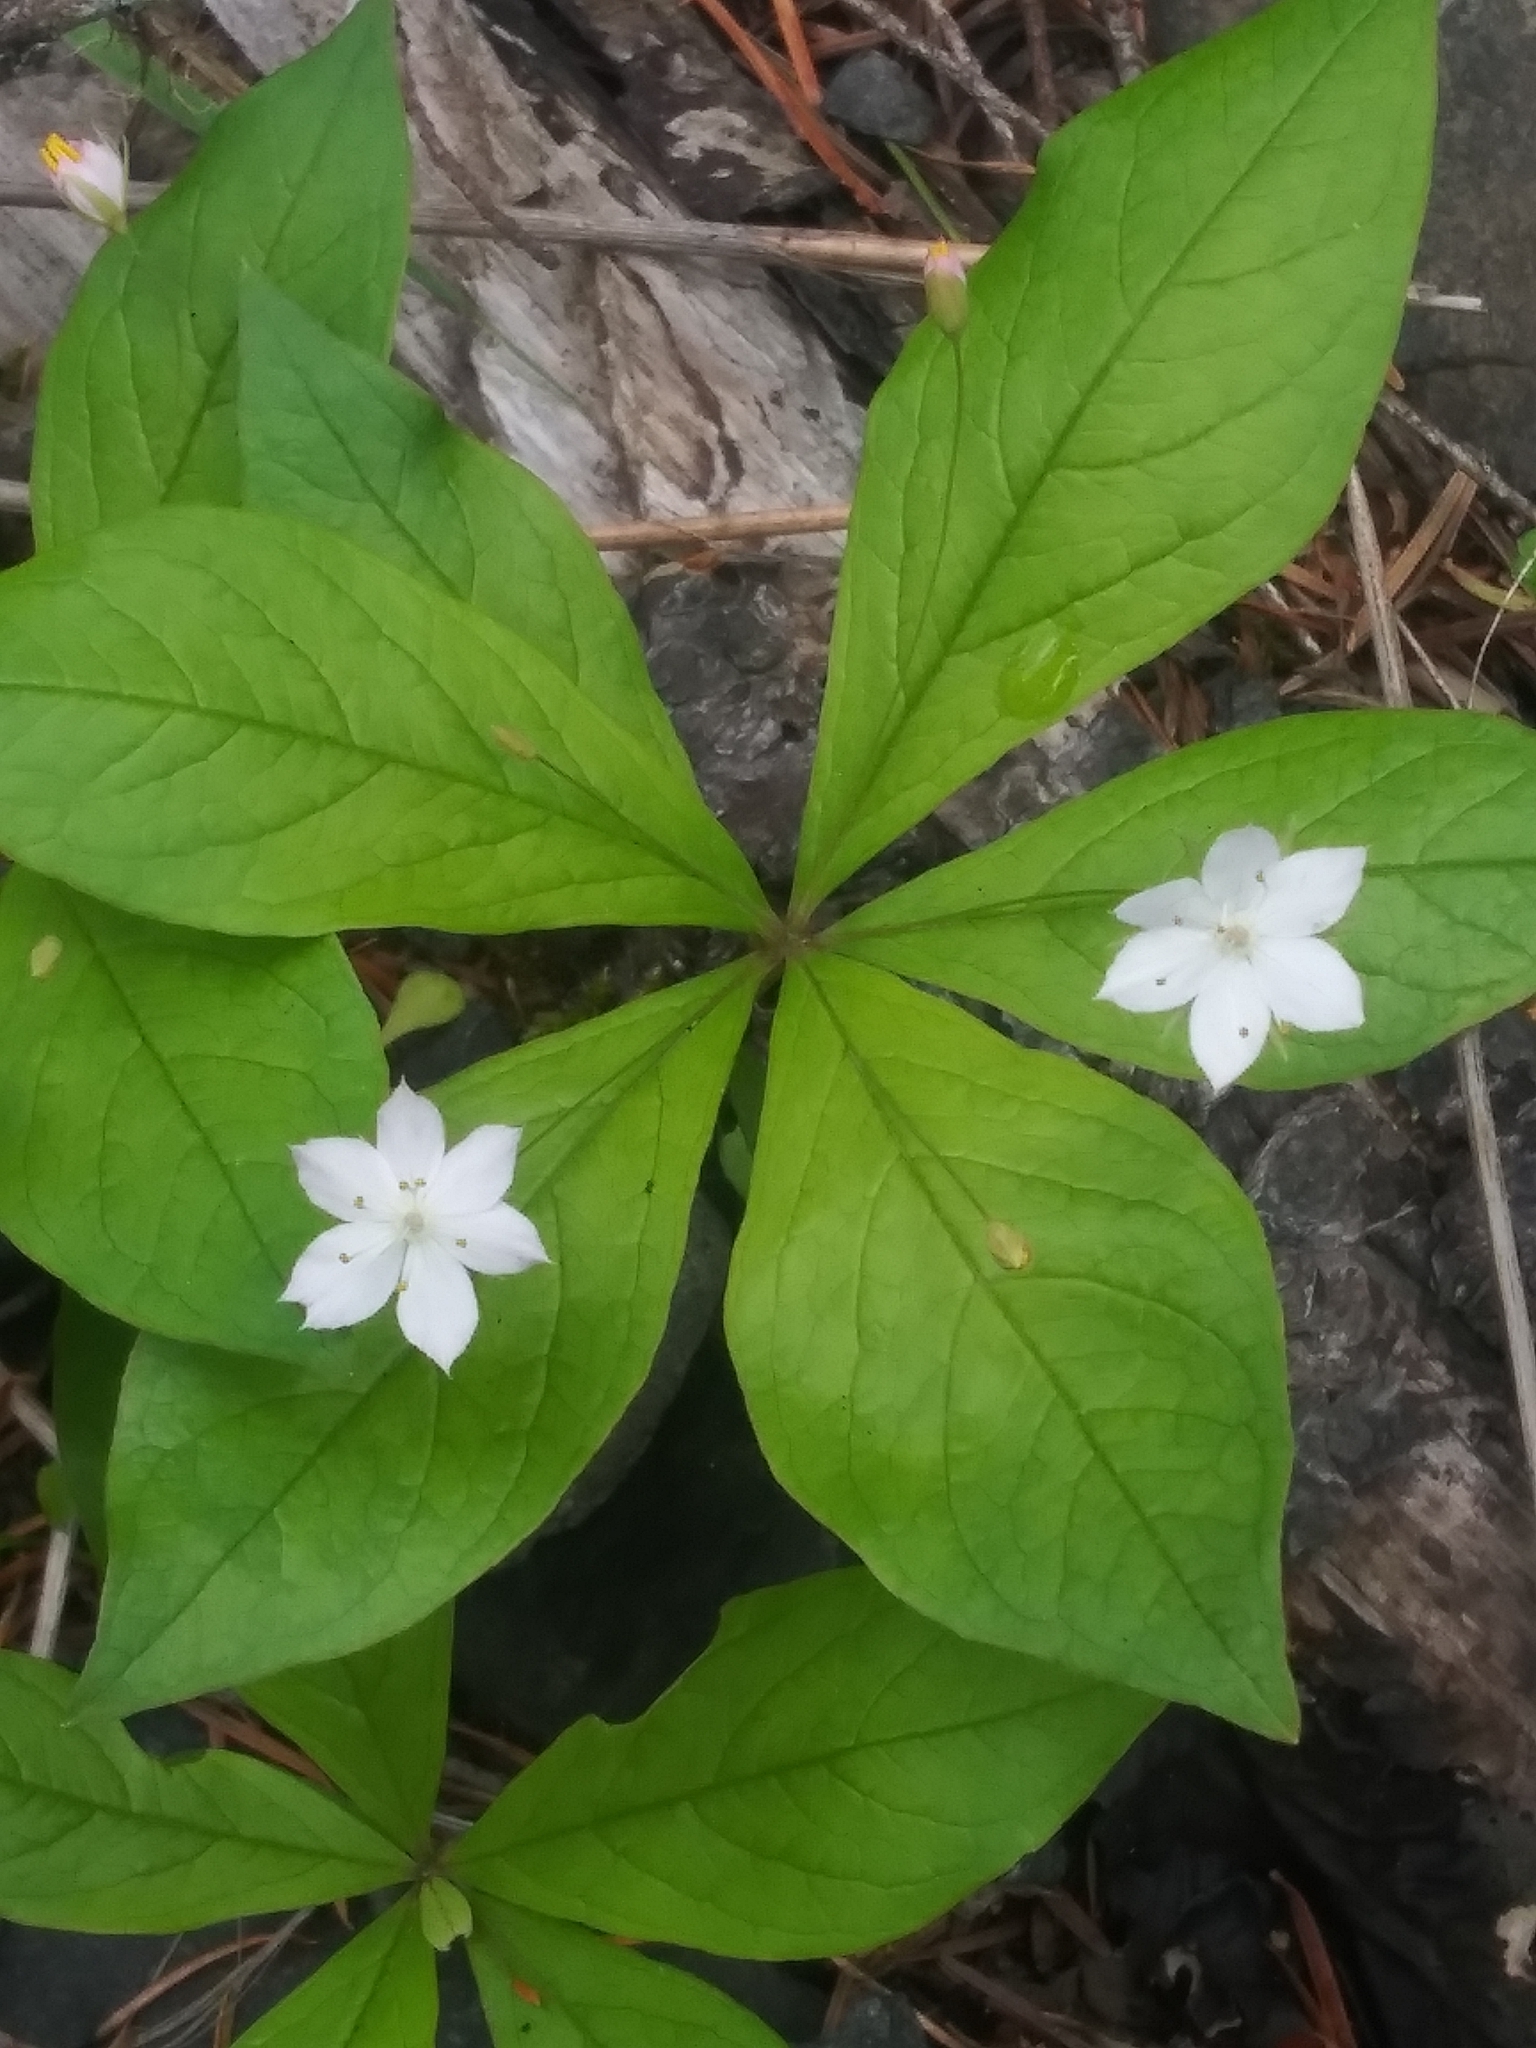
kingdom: Plantae
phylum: Tracheophyta
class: Magnoliopsida
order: Ericales
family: Primulaceae
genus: Lysimachia
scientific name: Lysimachia latifolia
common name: Pacific starflower
